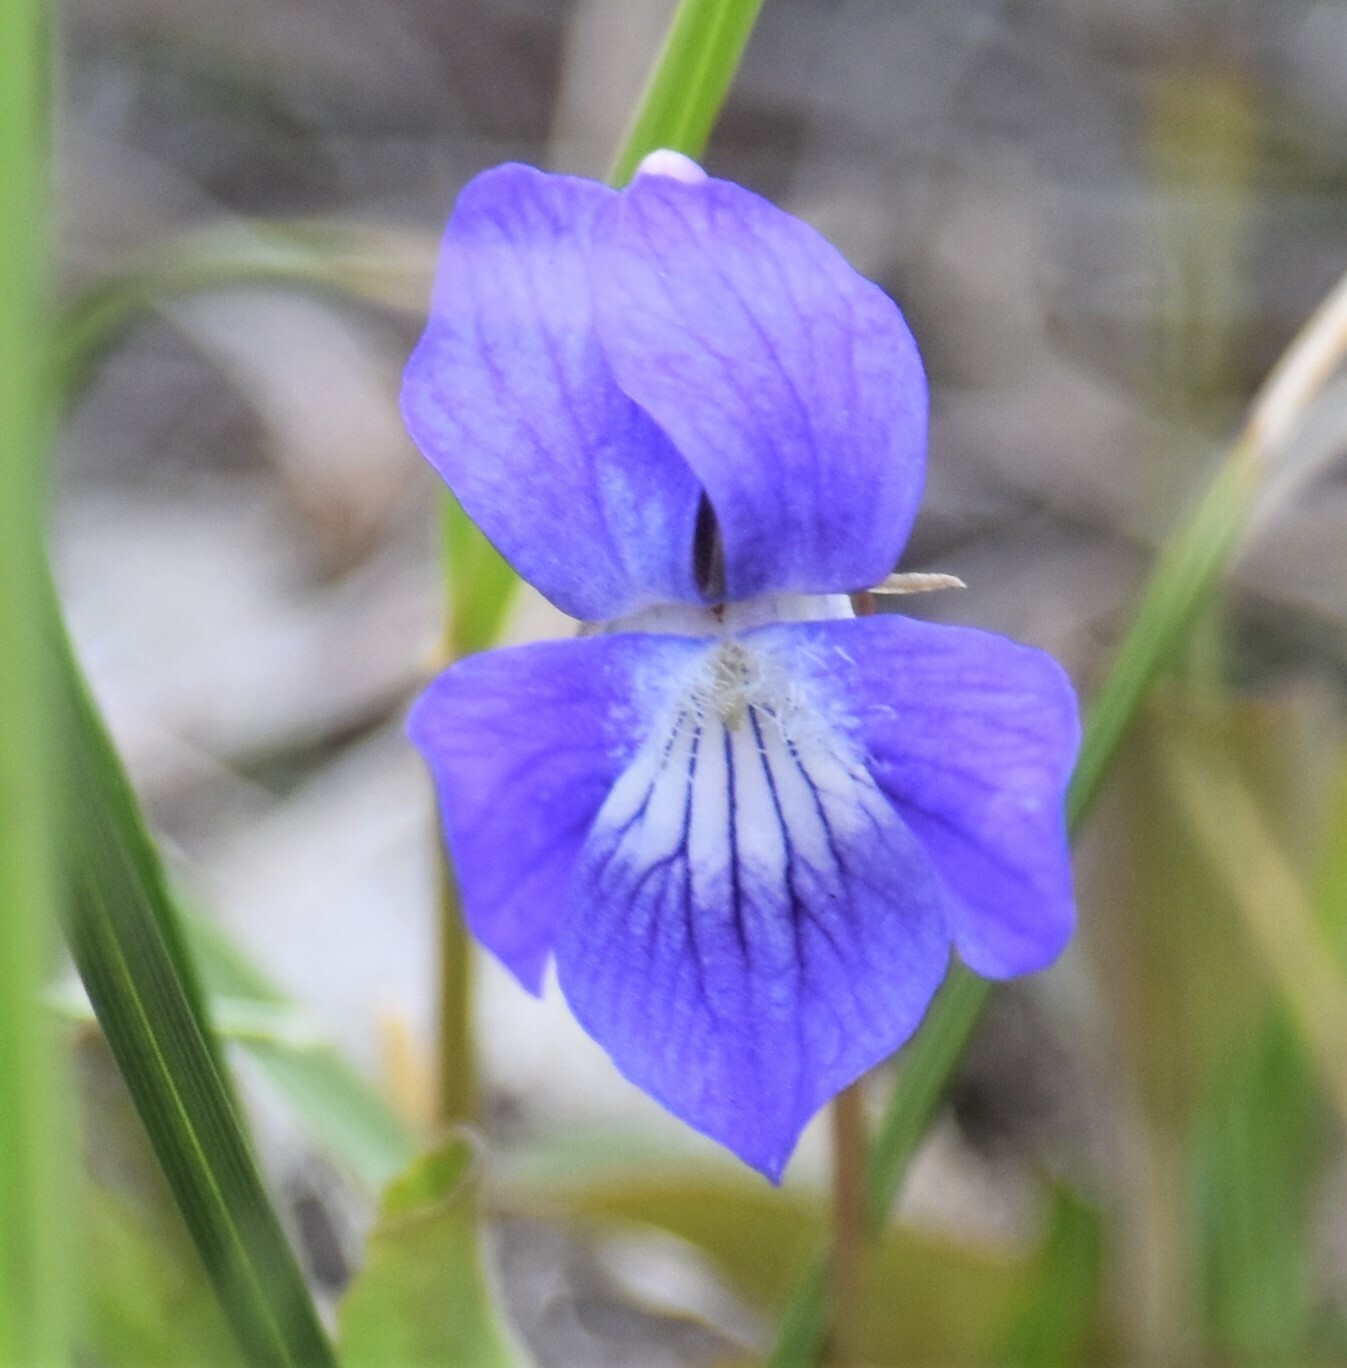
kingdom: Plantae
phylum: Tracheophyta
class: Magnoliopsida
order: Malpighiales
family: Violaceae
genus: Viola
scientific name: Viola adunca
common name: Sand violet
